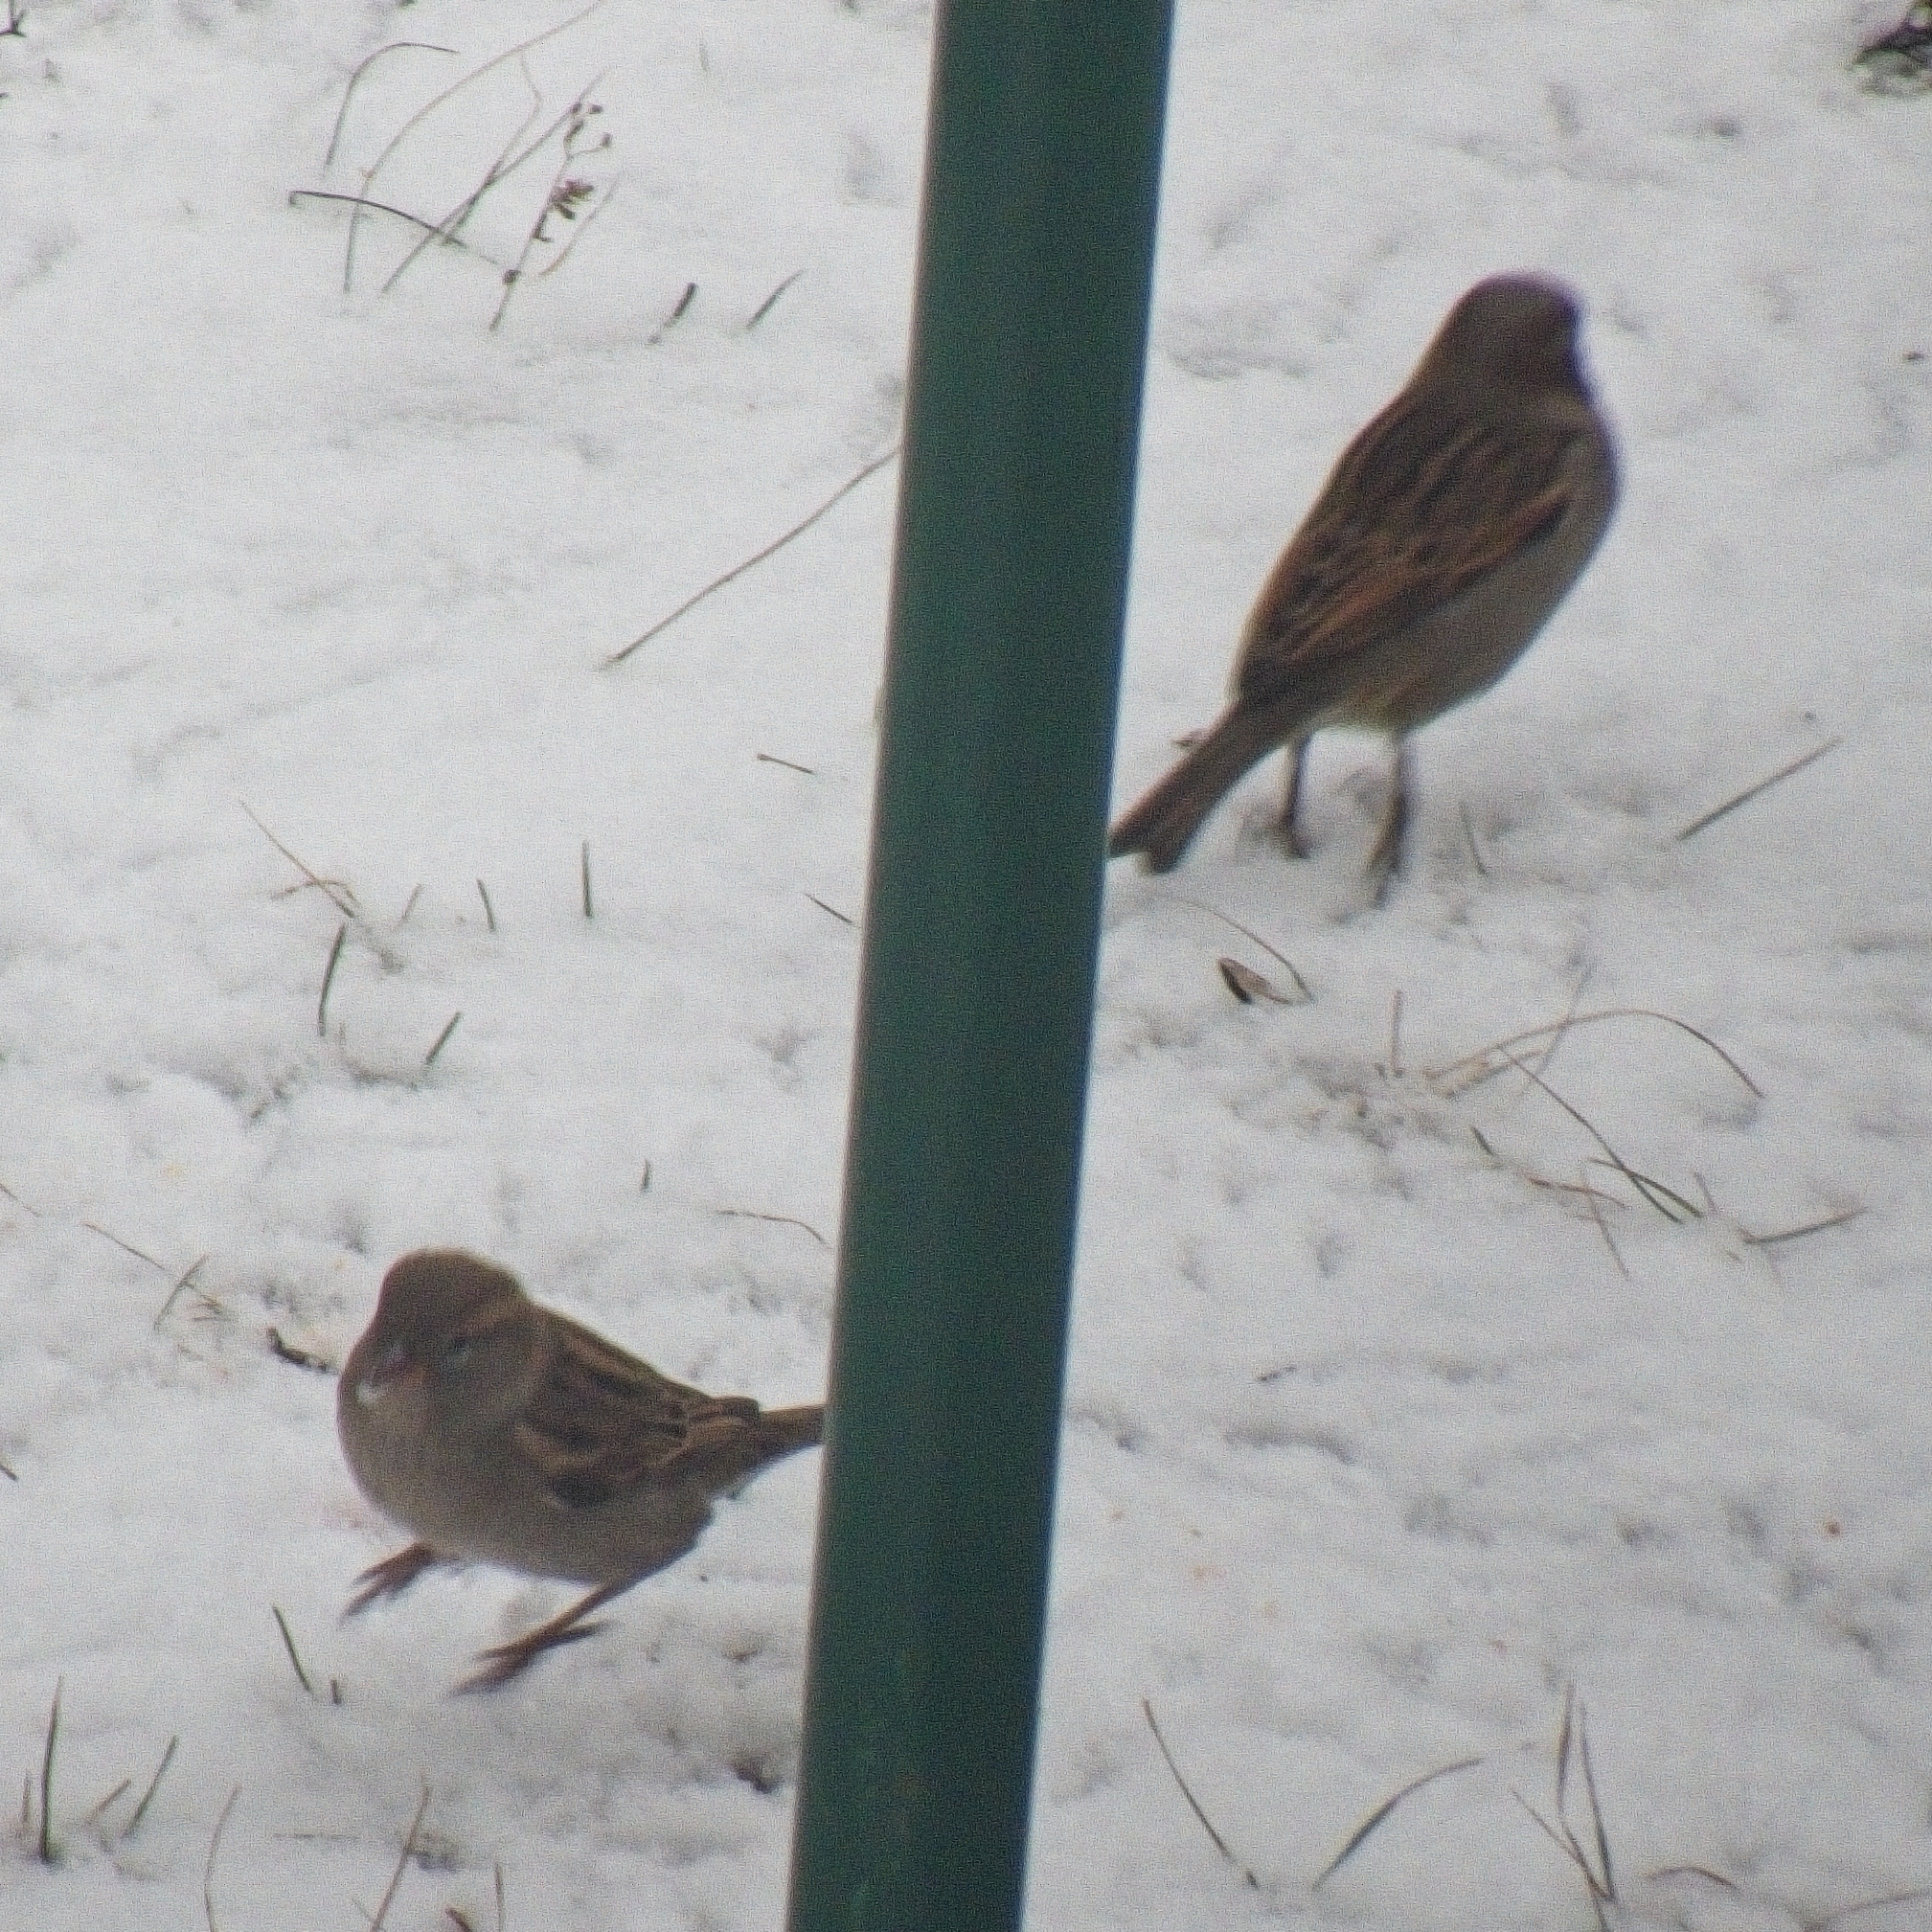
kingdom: Animalia
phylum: Chordata
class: Aves
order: Passeriformes
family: Passeridae
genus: Passer
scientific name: Passer domesticus
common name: House sparrow
